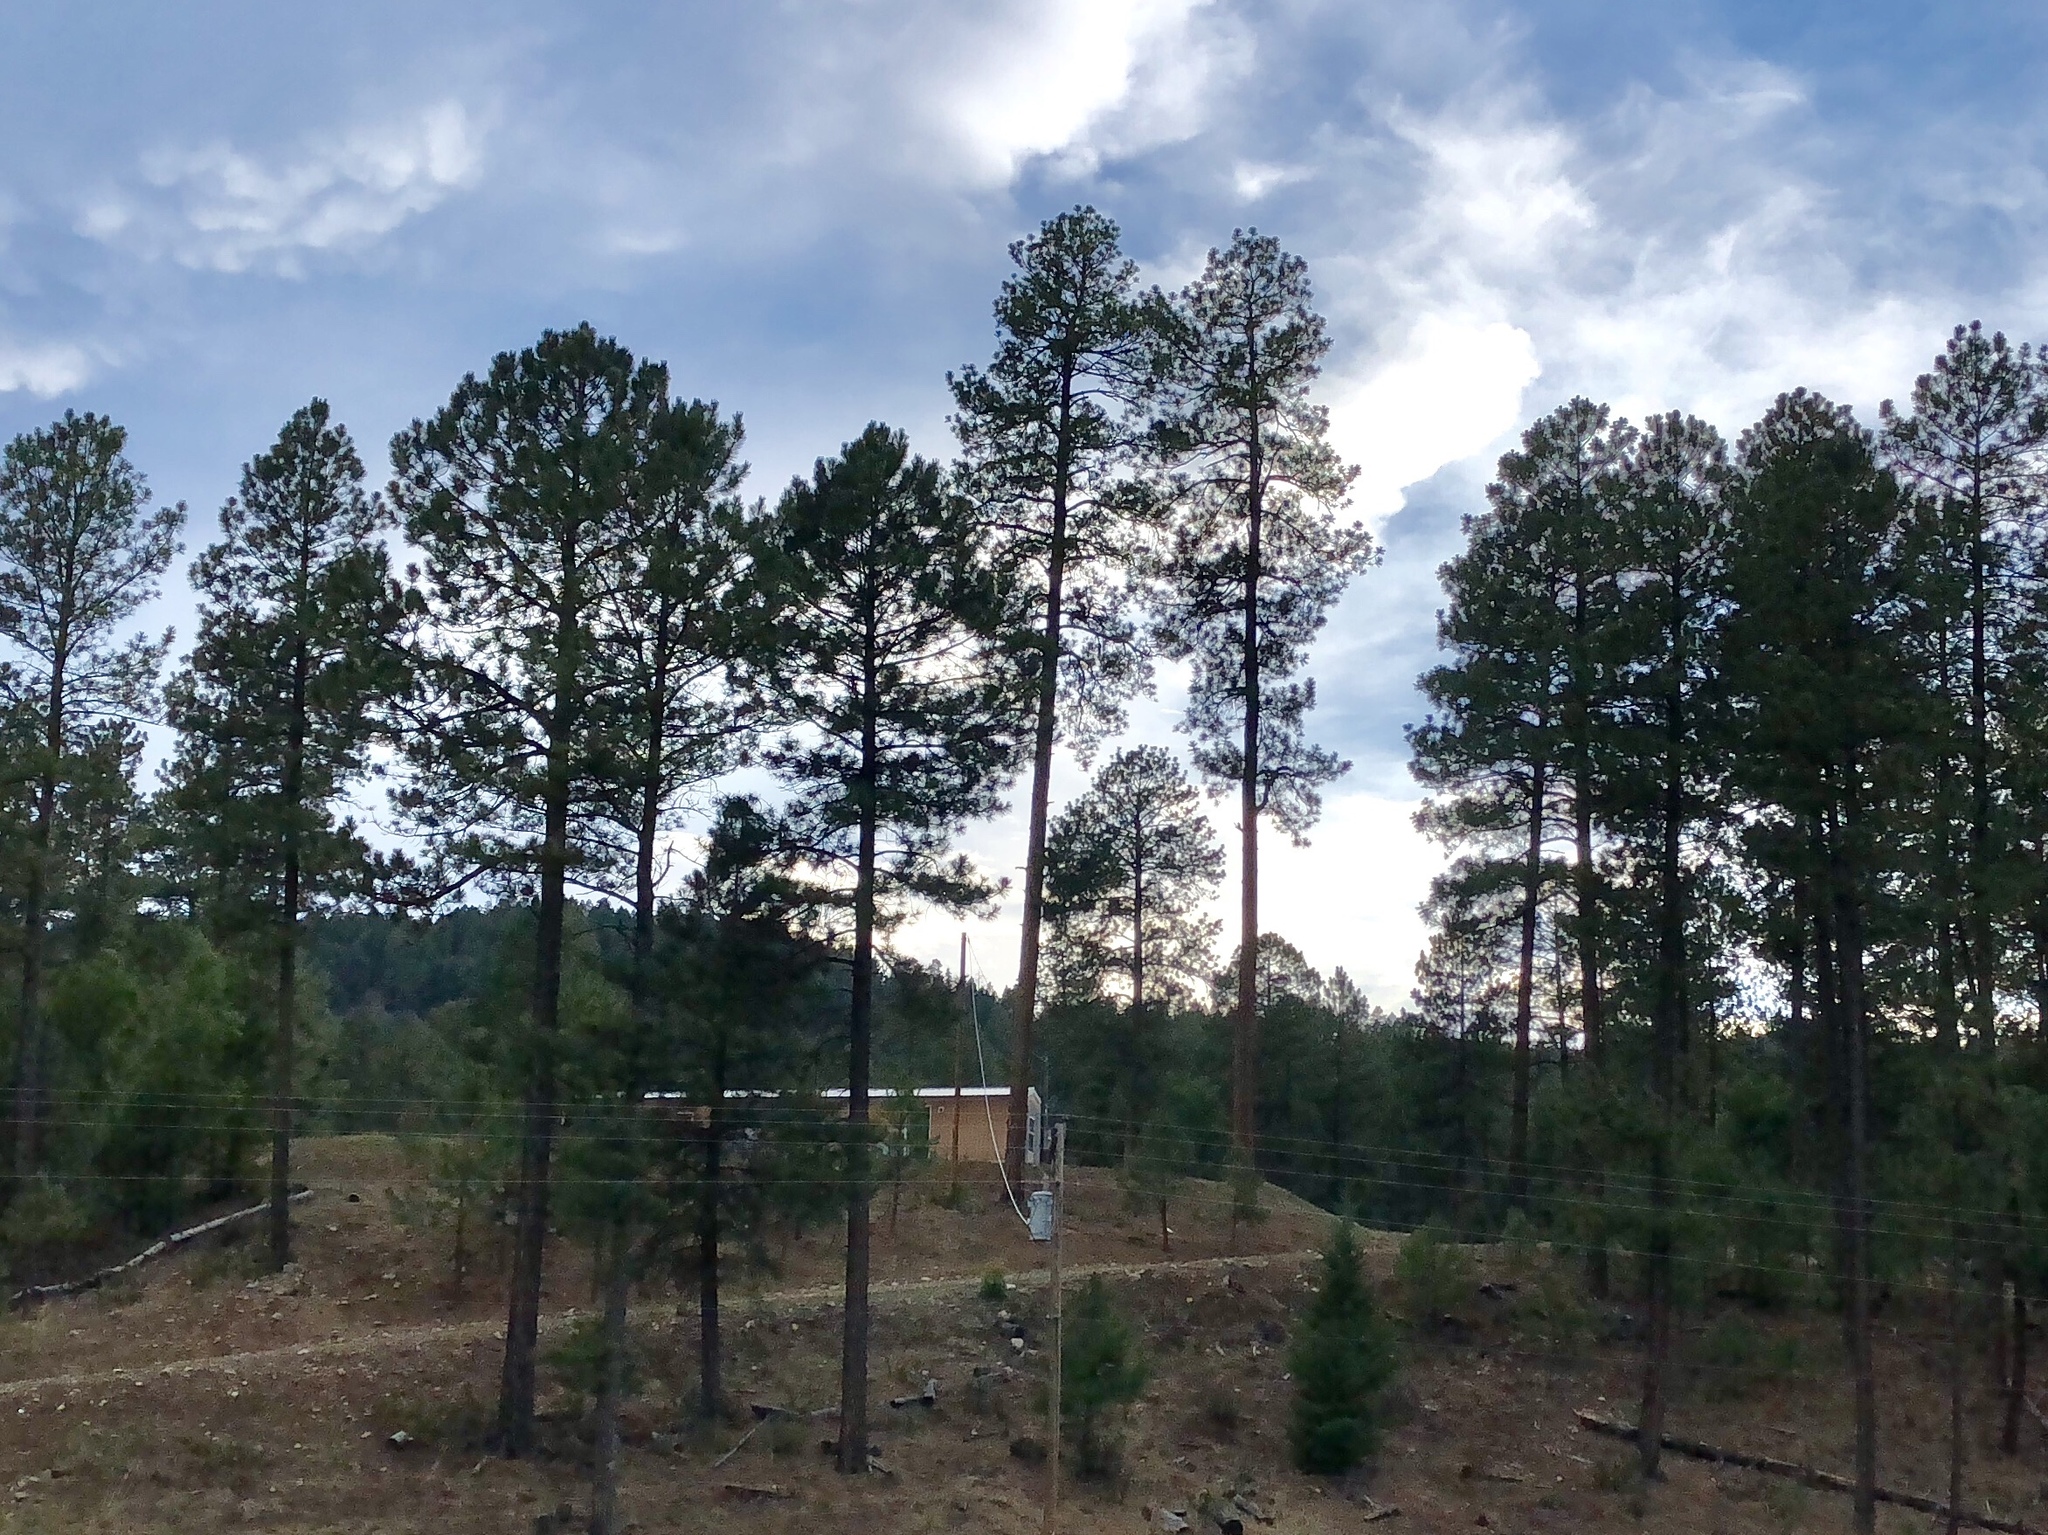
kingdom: Plantae
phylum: Tracheophyta
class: Pinopsida
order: Pinales
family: Pinaceae
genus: Pinus
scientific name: Pinus ponderosa
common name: Western yellow-pine
